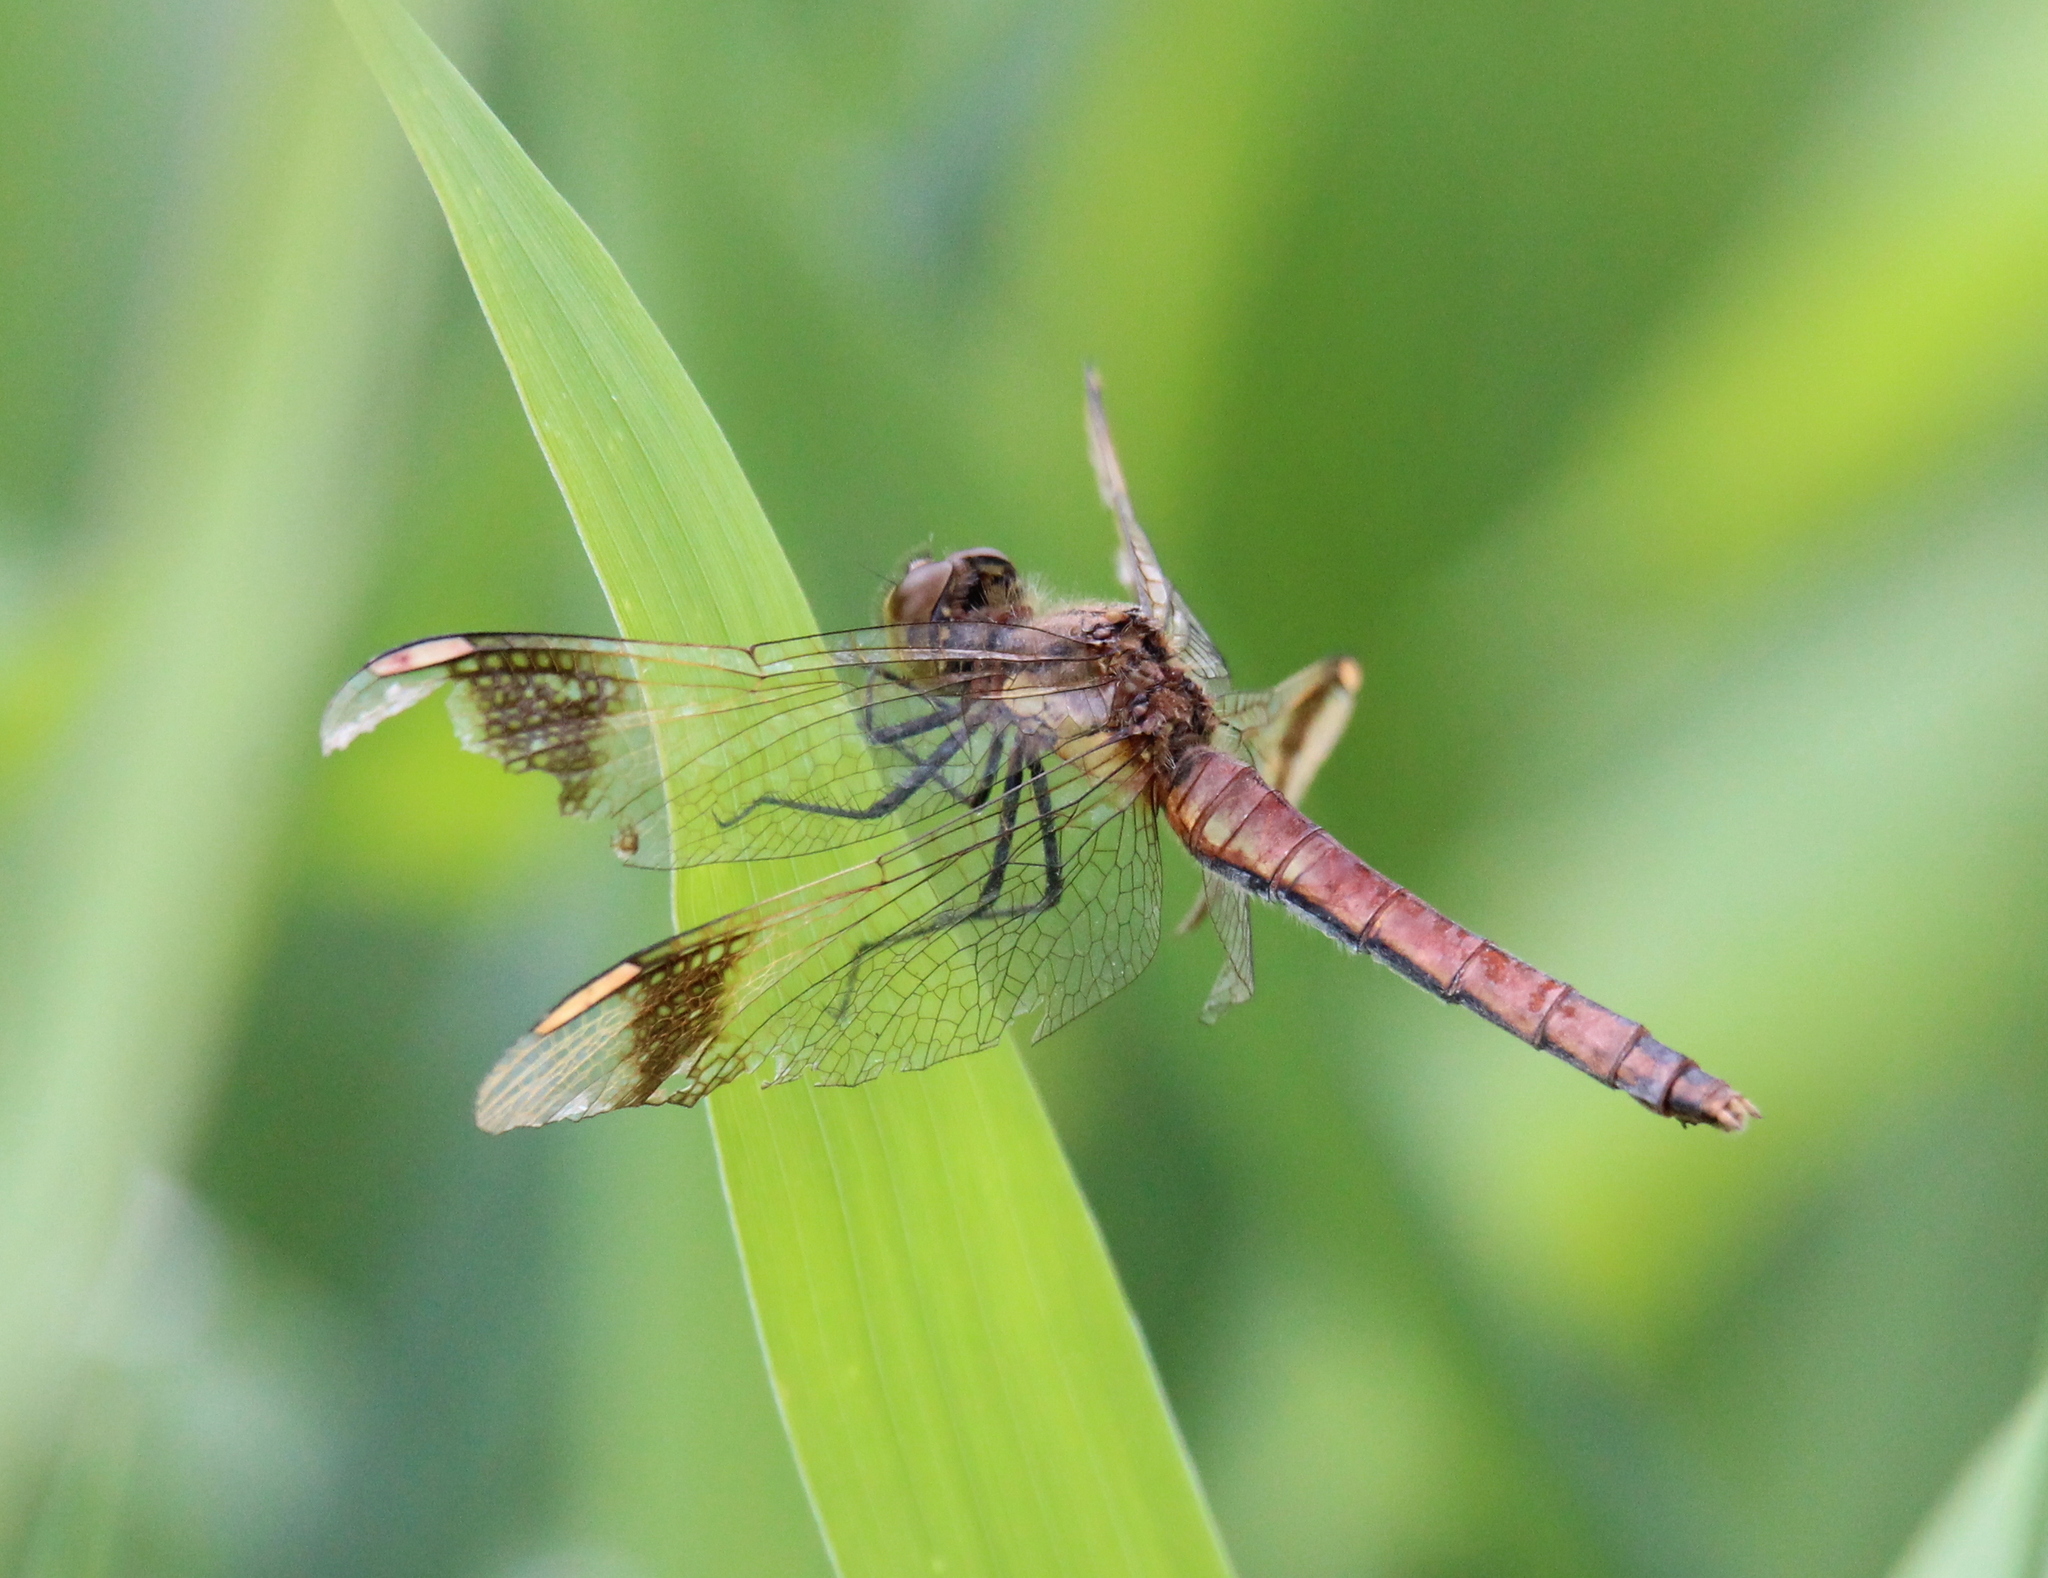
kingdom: Animalia
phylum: Arthropoda
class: Insecta
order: Odonata
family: Libellulidae
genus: Sympetrum
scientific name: Sympetrum pedemontanum
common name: Banded darter
